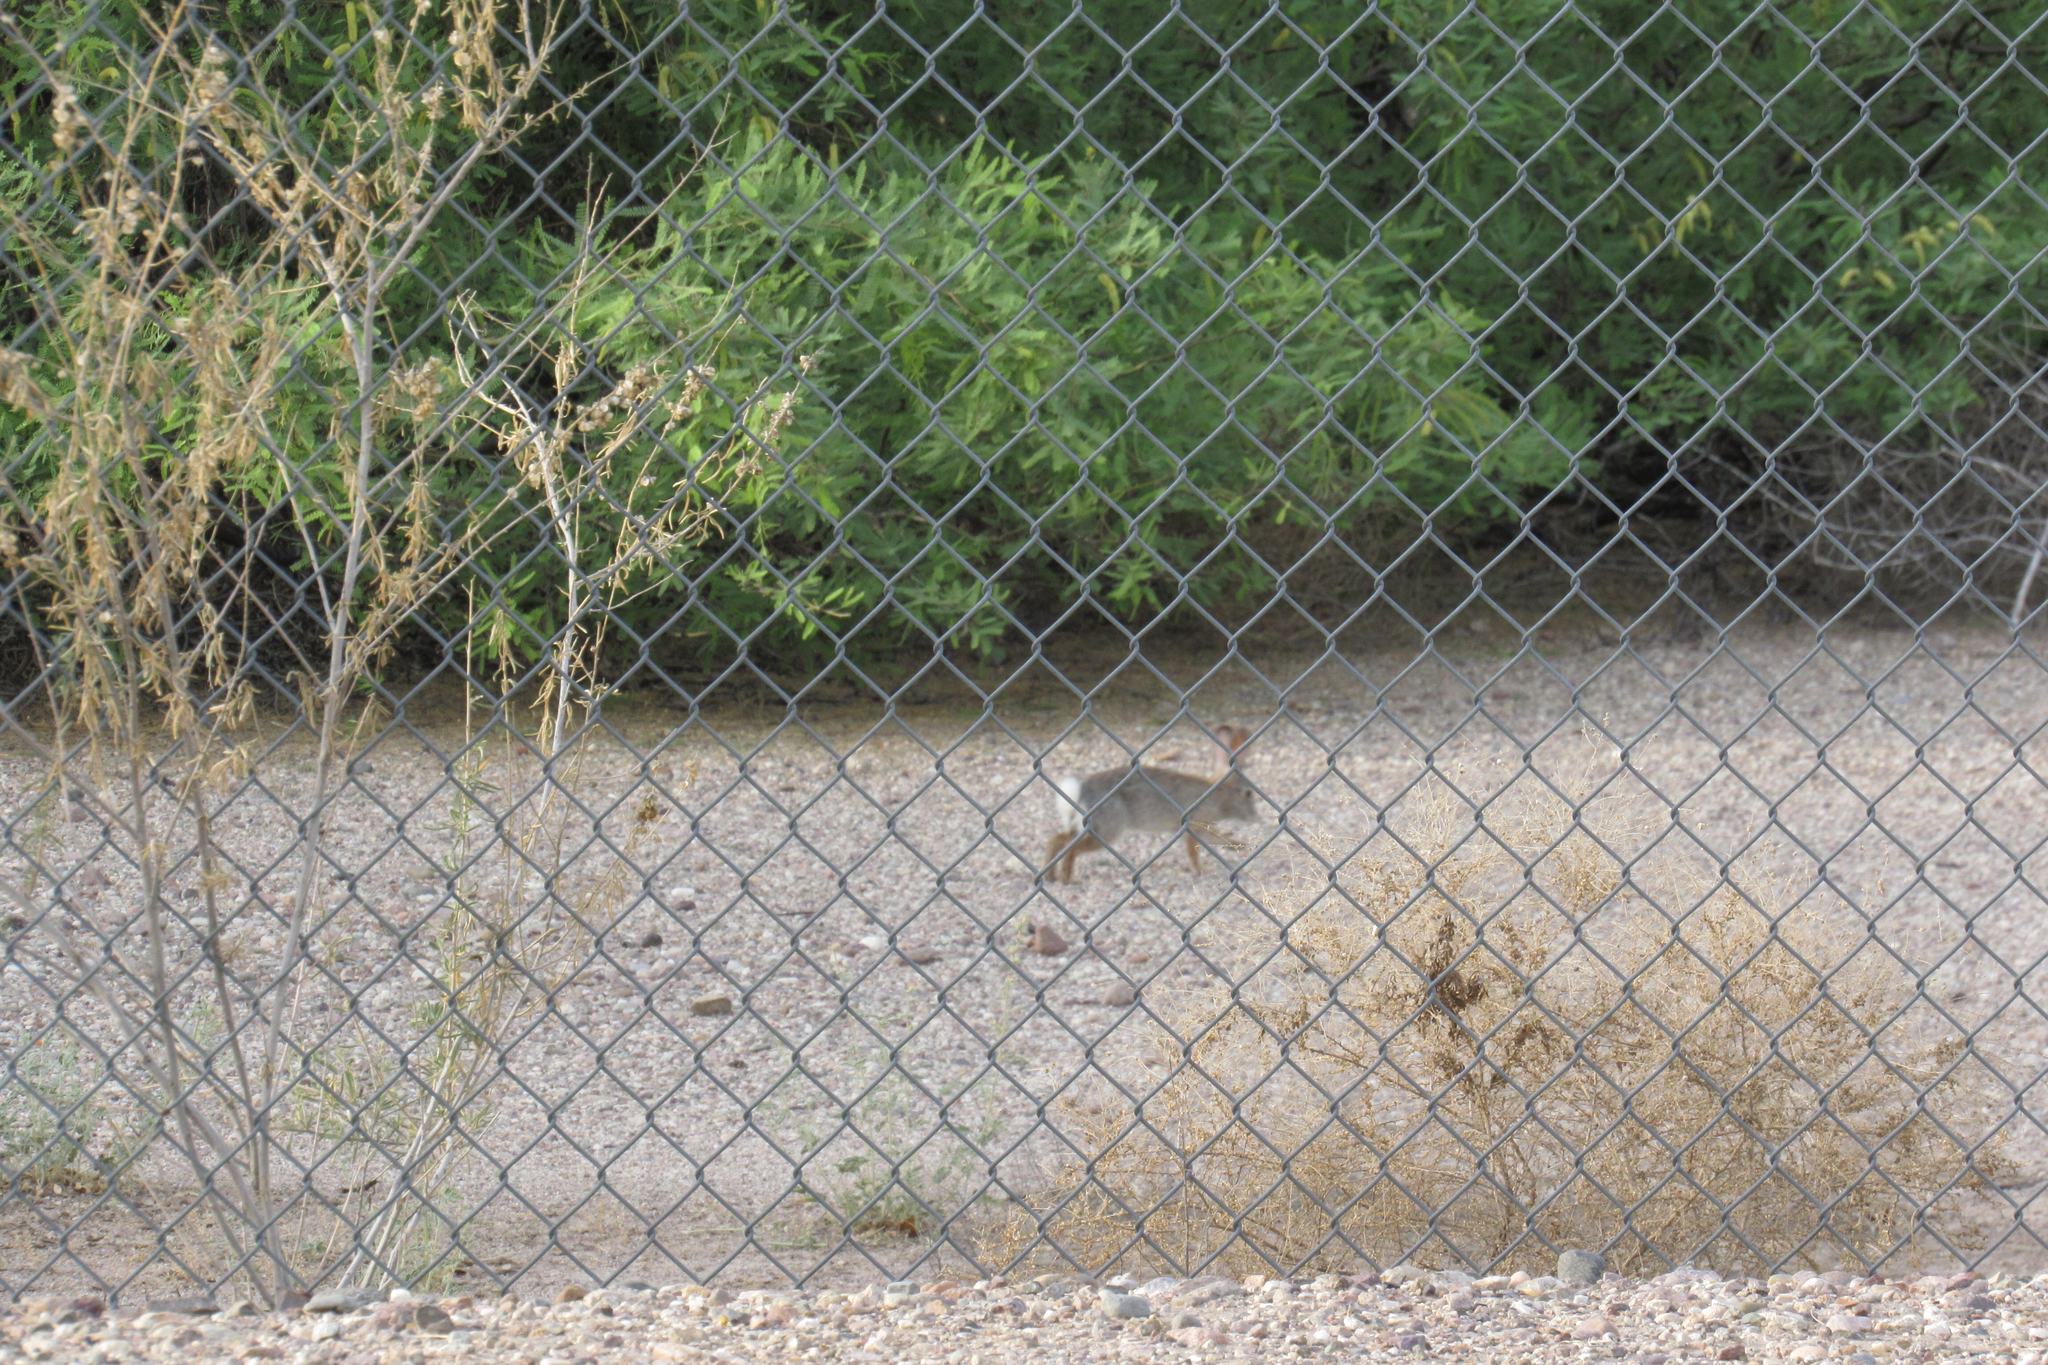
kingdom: Animalia
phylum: Chordata
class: Mammalia
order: Lagomorpha
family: Leporidae
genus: Sylvilagus
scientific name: Sylvilagus audubonii
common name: Desert cottontail
